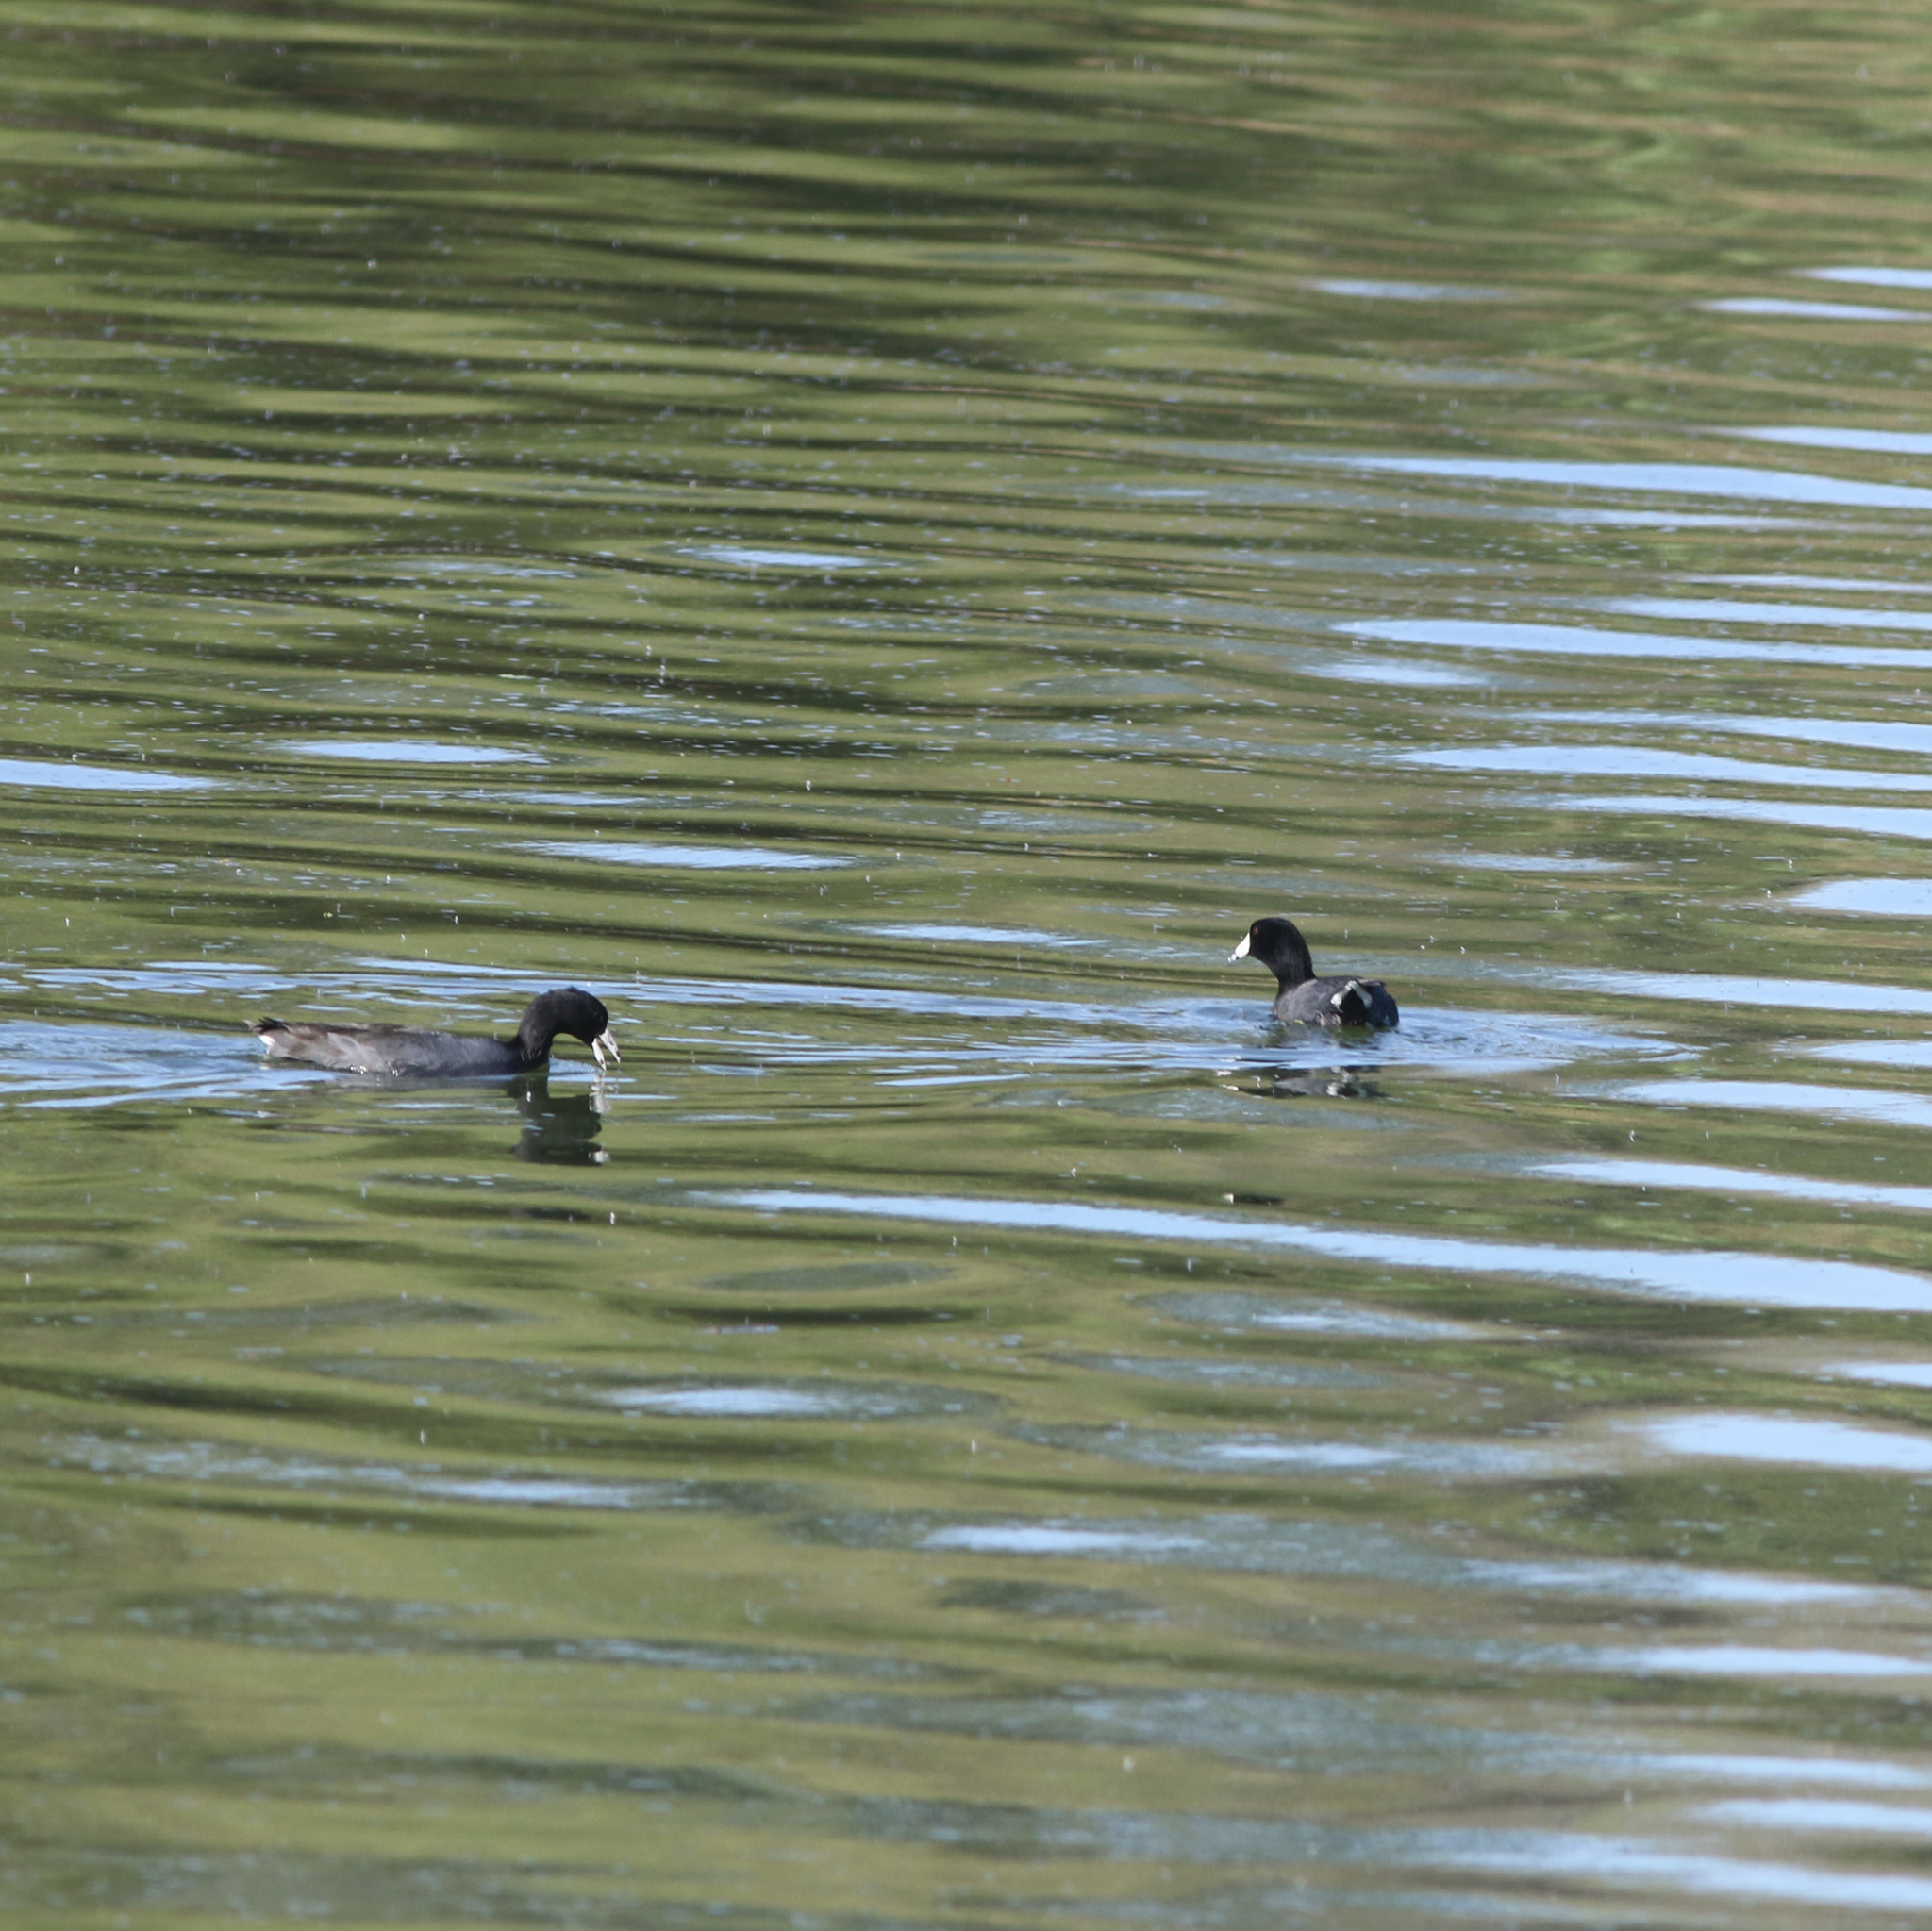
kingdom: Animalia
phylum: Chordata
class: Aves
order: Gruiformes
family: Rallidae
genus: Fulica
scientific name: Fulica americana
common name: American coot
